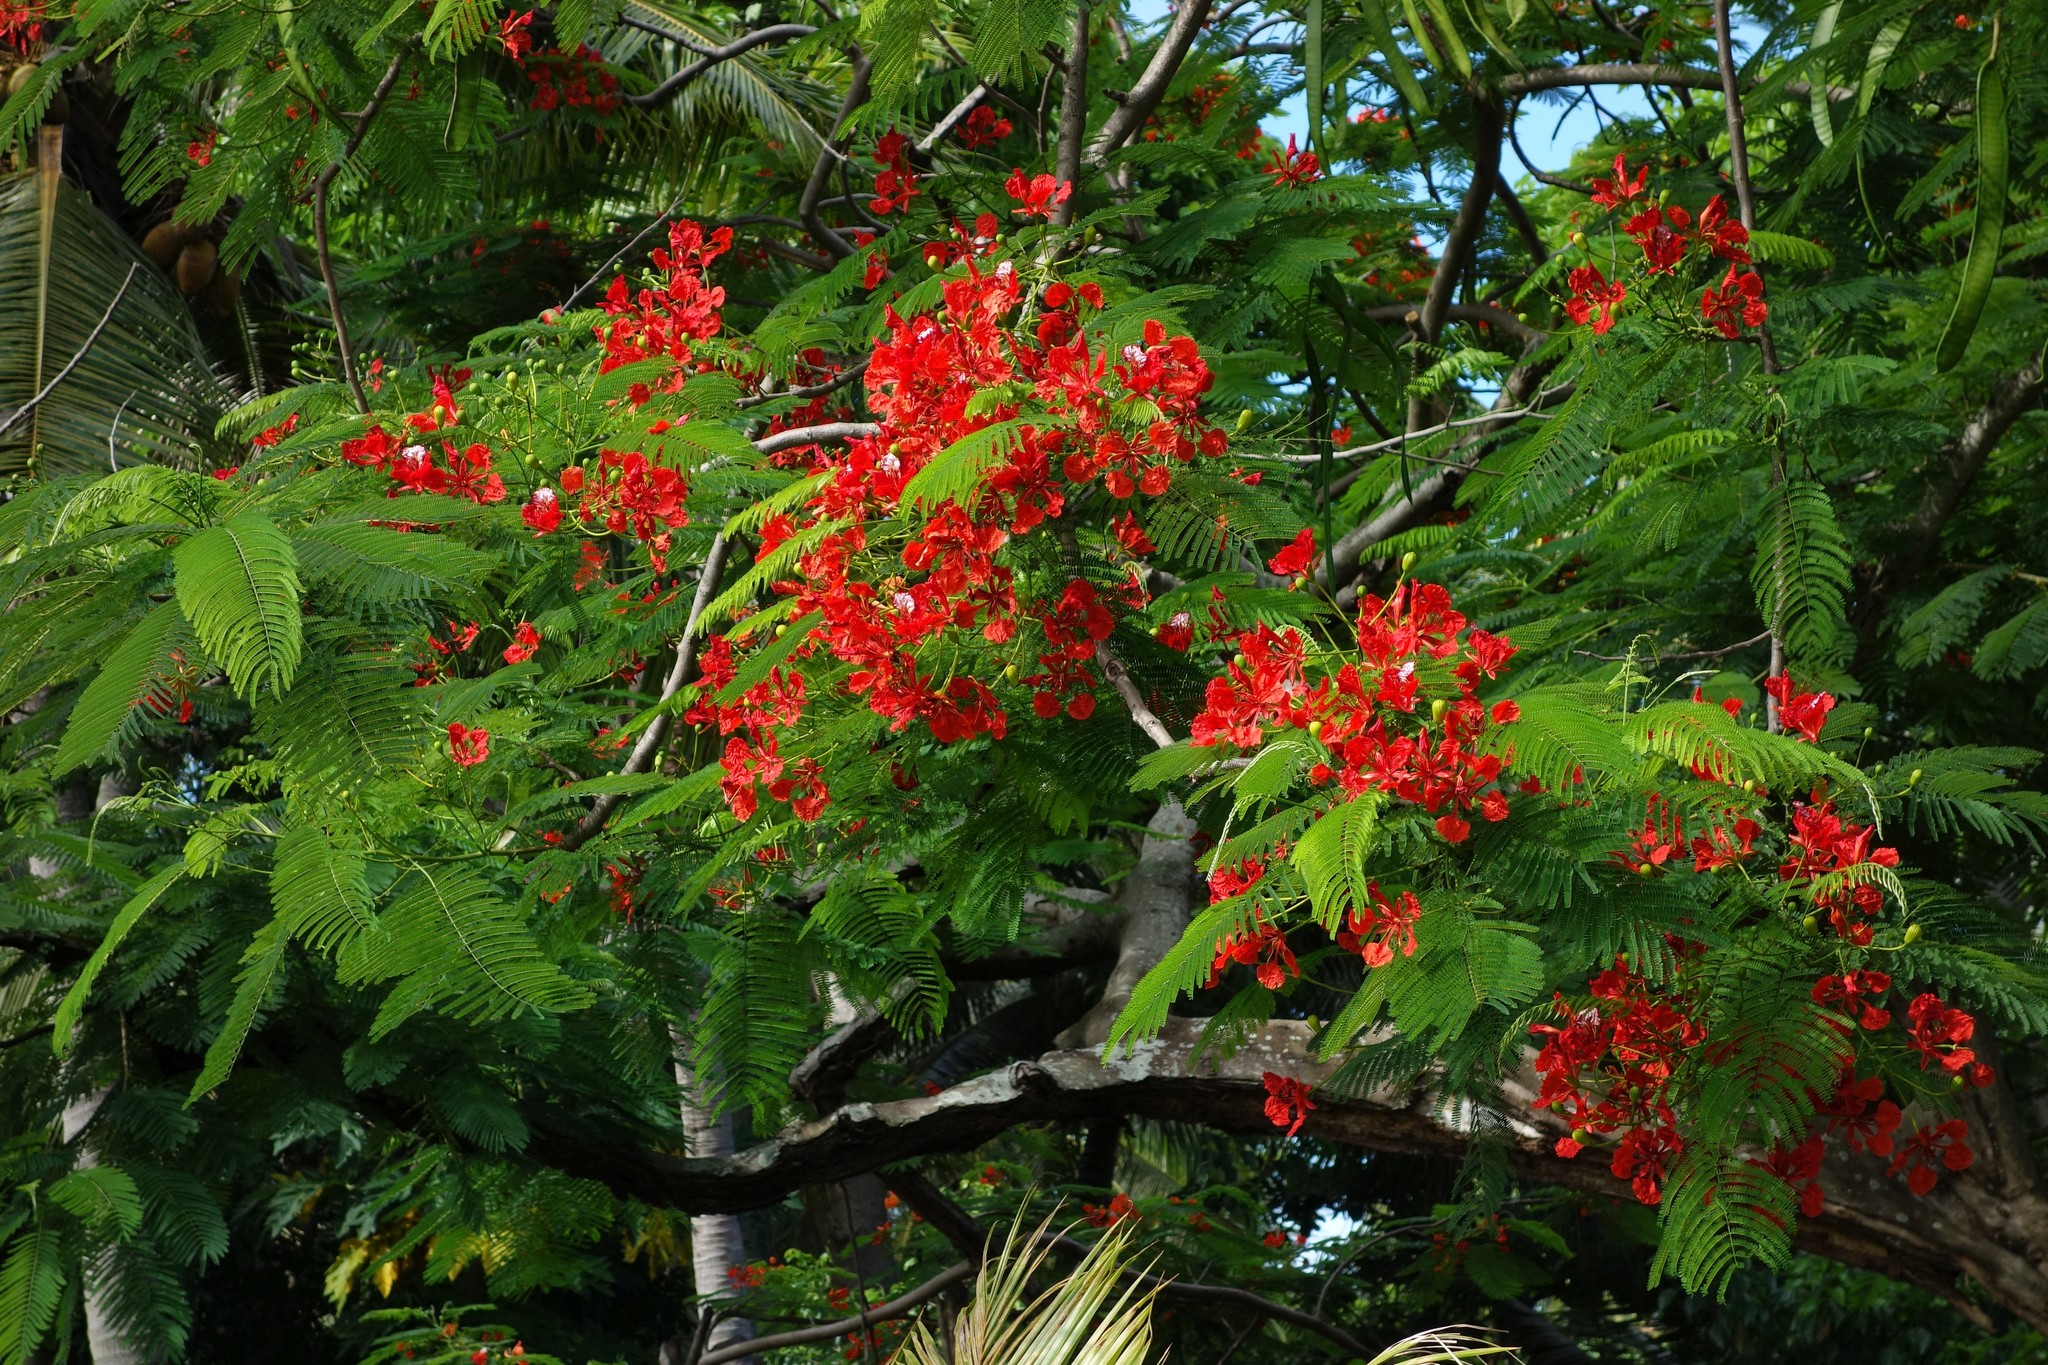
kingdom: Plantae
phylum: Tracheophyta
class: Magnoliopsida
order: Fabales
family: Fabaceae
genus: Delonix
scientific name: Delonix regia
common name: Royal poinciana
